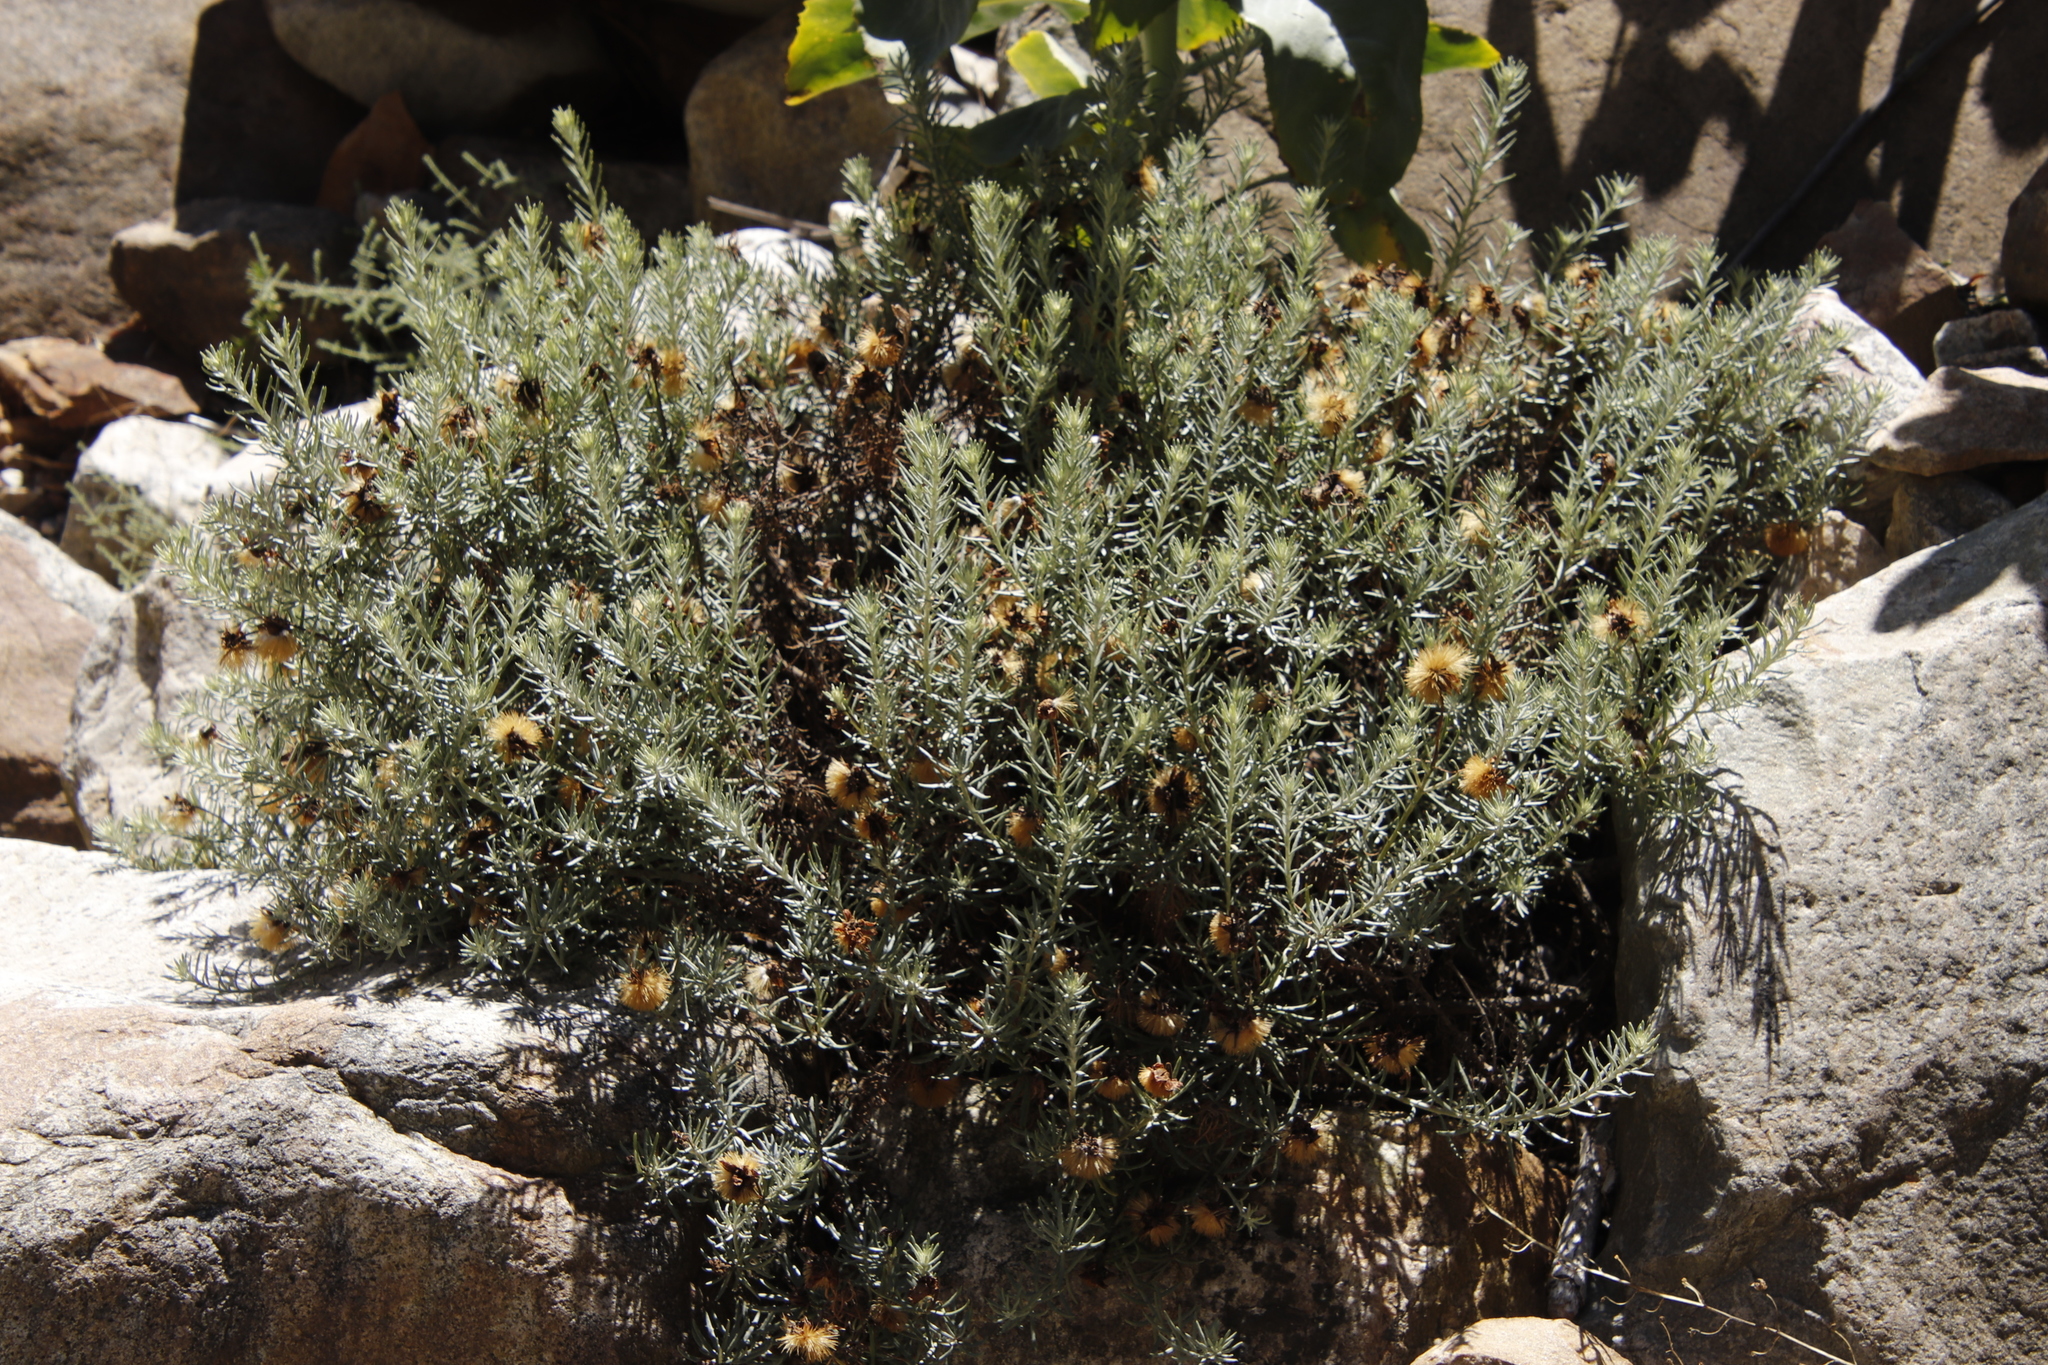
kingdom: Plantae
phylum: Tracheophyta
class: Magnoliopsida
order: Asterales
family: Asteraceae
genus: Heterolepis
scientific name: Heterolepis aliena
